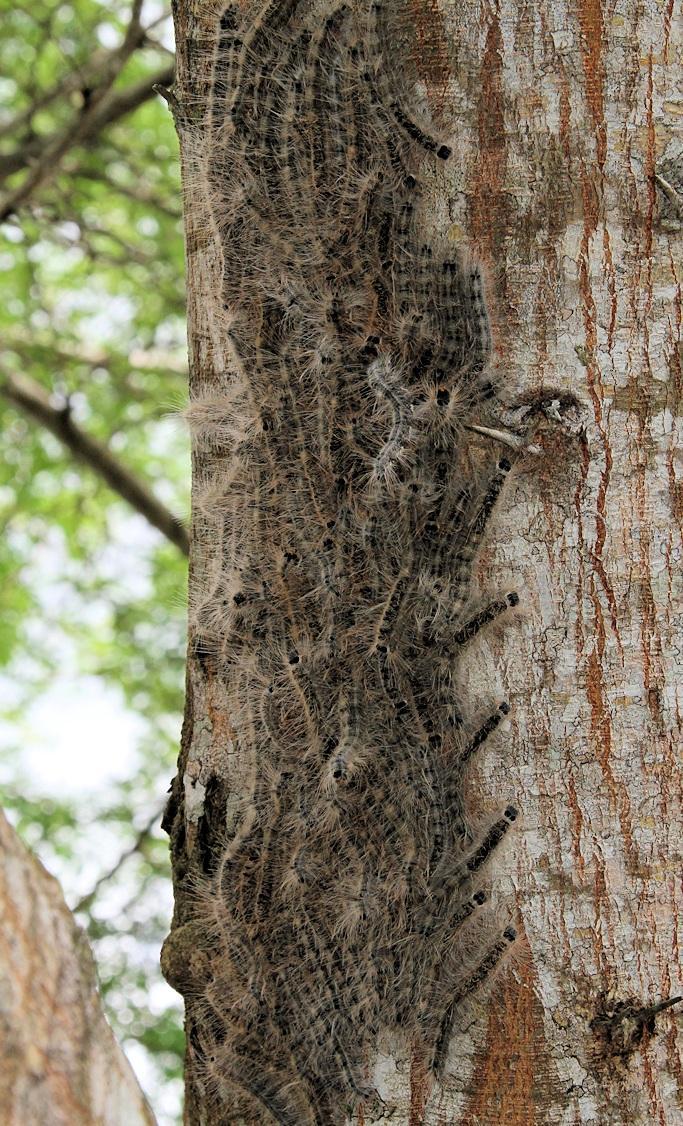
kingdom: Plantae
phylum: Tracheophyta
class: Magnoliopsida
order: Fabales
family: Fabaceae
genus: Vachellia
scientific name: Vachellia kosiensis
